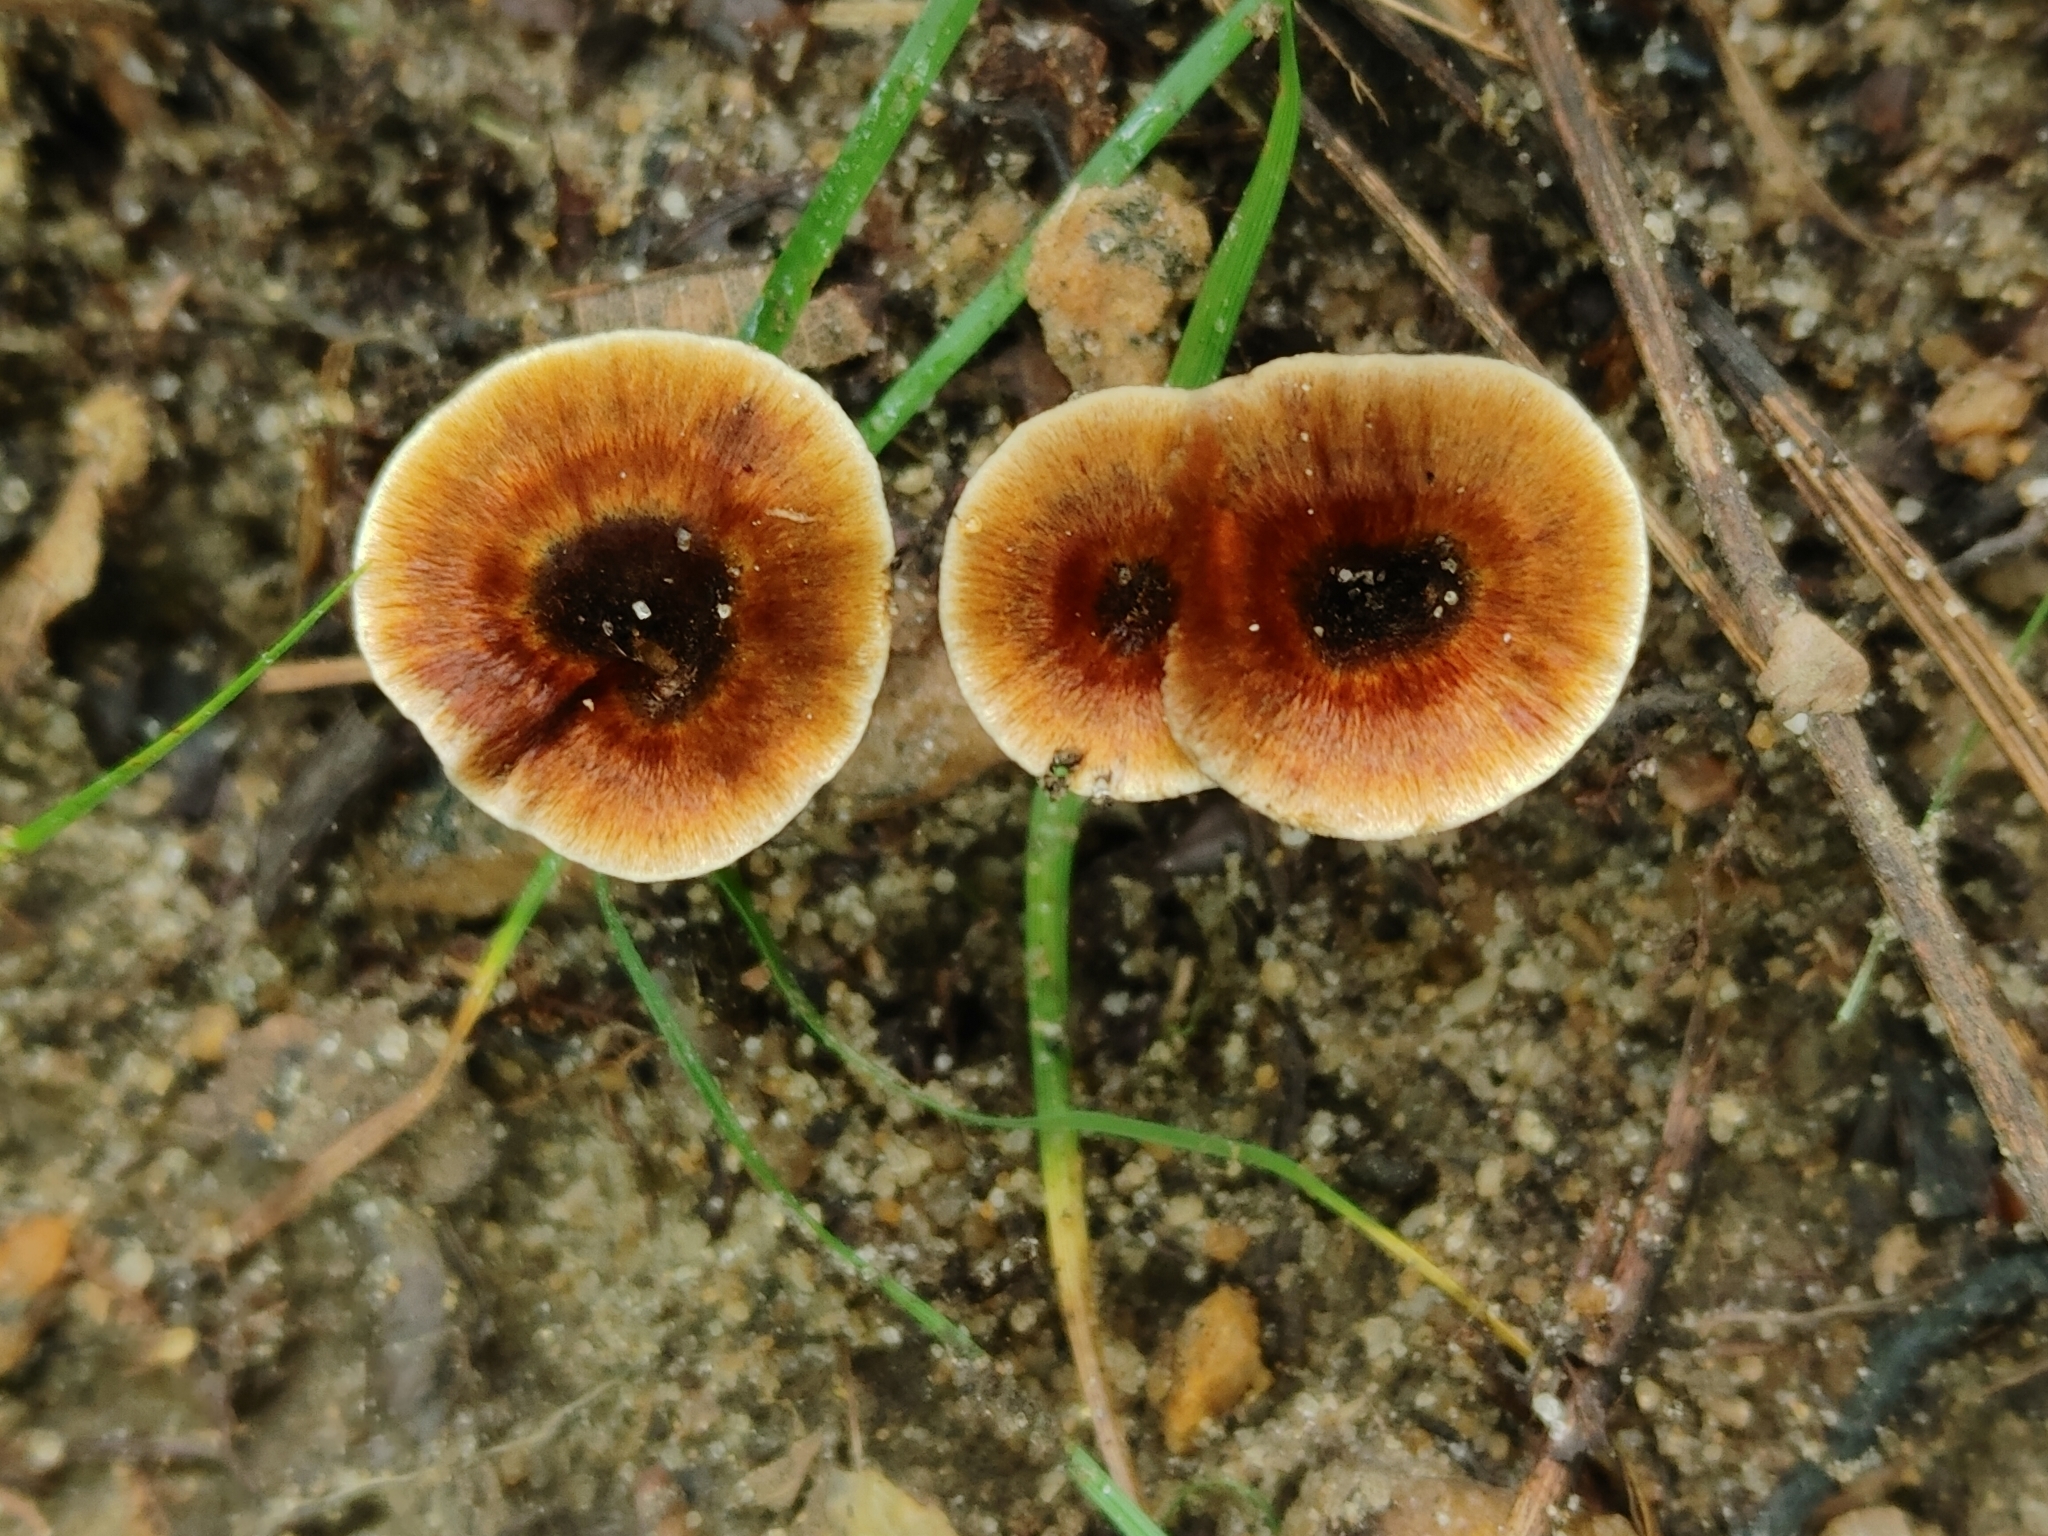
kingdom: Fungi
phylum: Basidiomycota
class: Agaricomycetes
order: Hymenochaetales
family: Hymenochaetaceae
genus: Coltricia
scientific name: Coltricia cinnamomea
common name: Shiny cinnamon polypore
